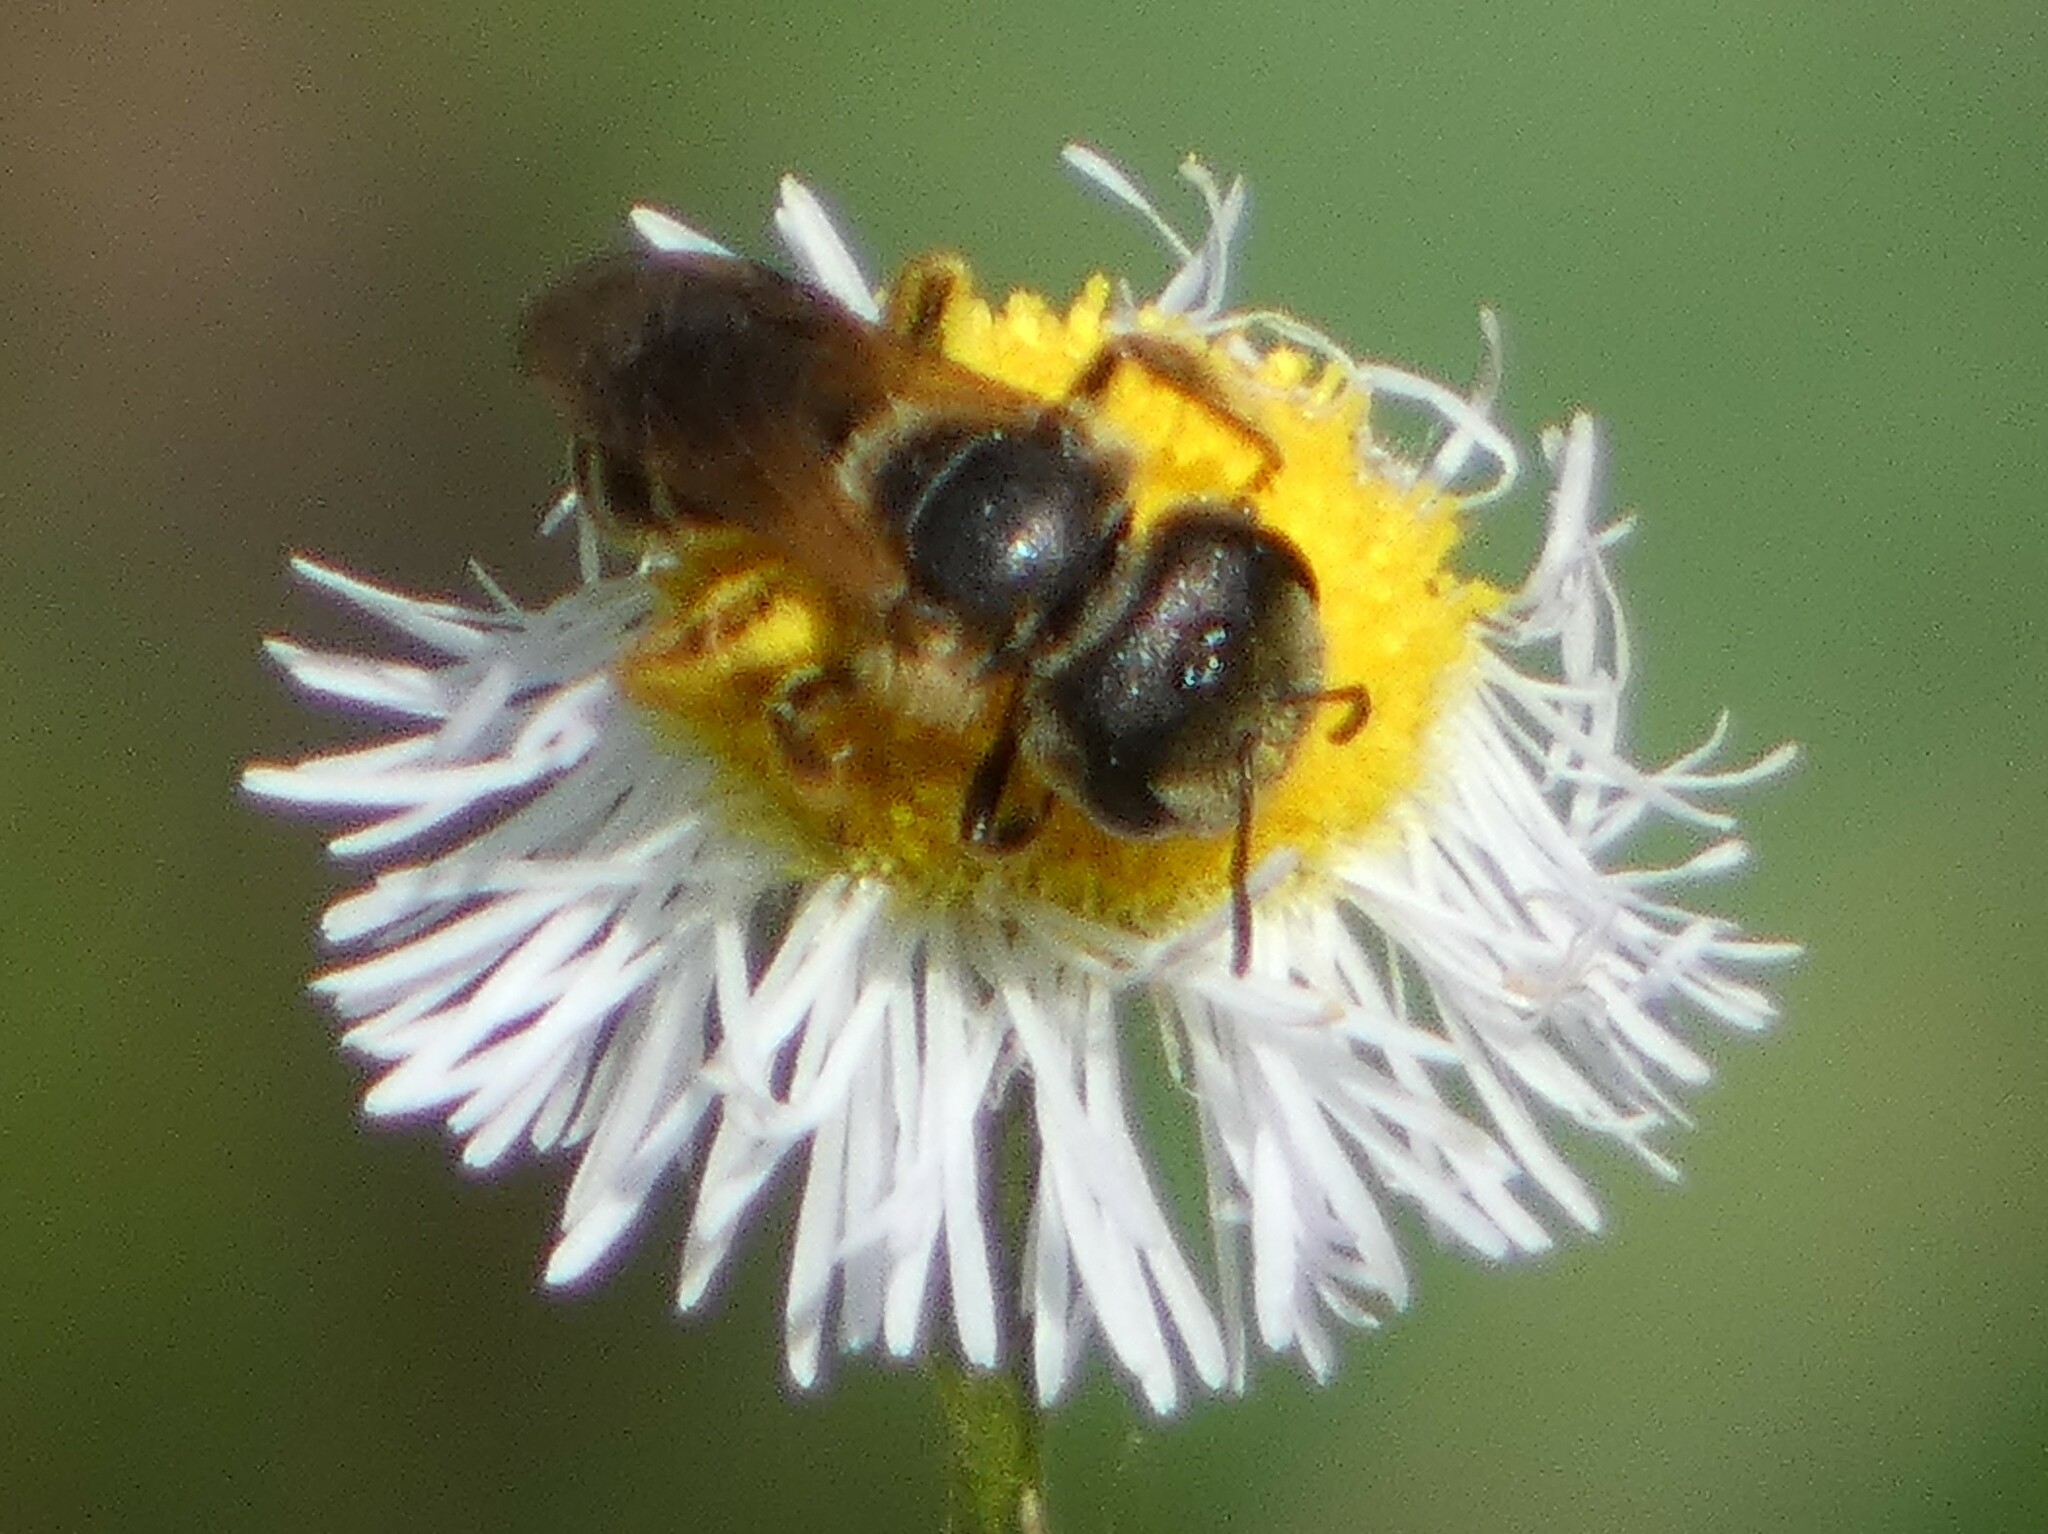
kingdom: Animalia
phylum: Arthropoda
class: Insecta
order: Hymenoptera
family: Halictidae
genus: Halictus
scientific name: Halictus poeyi
